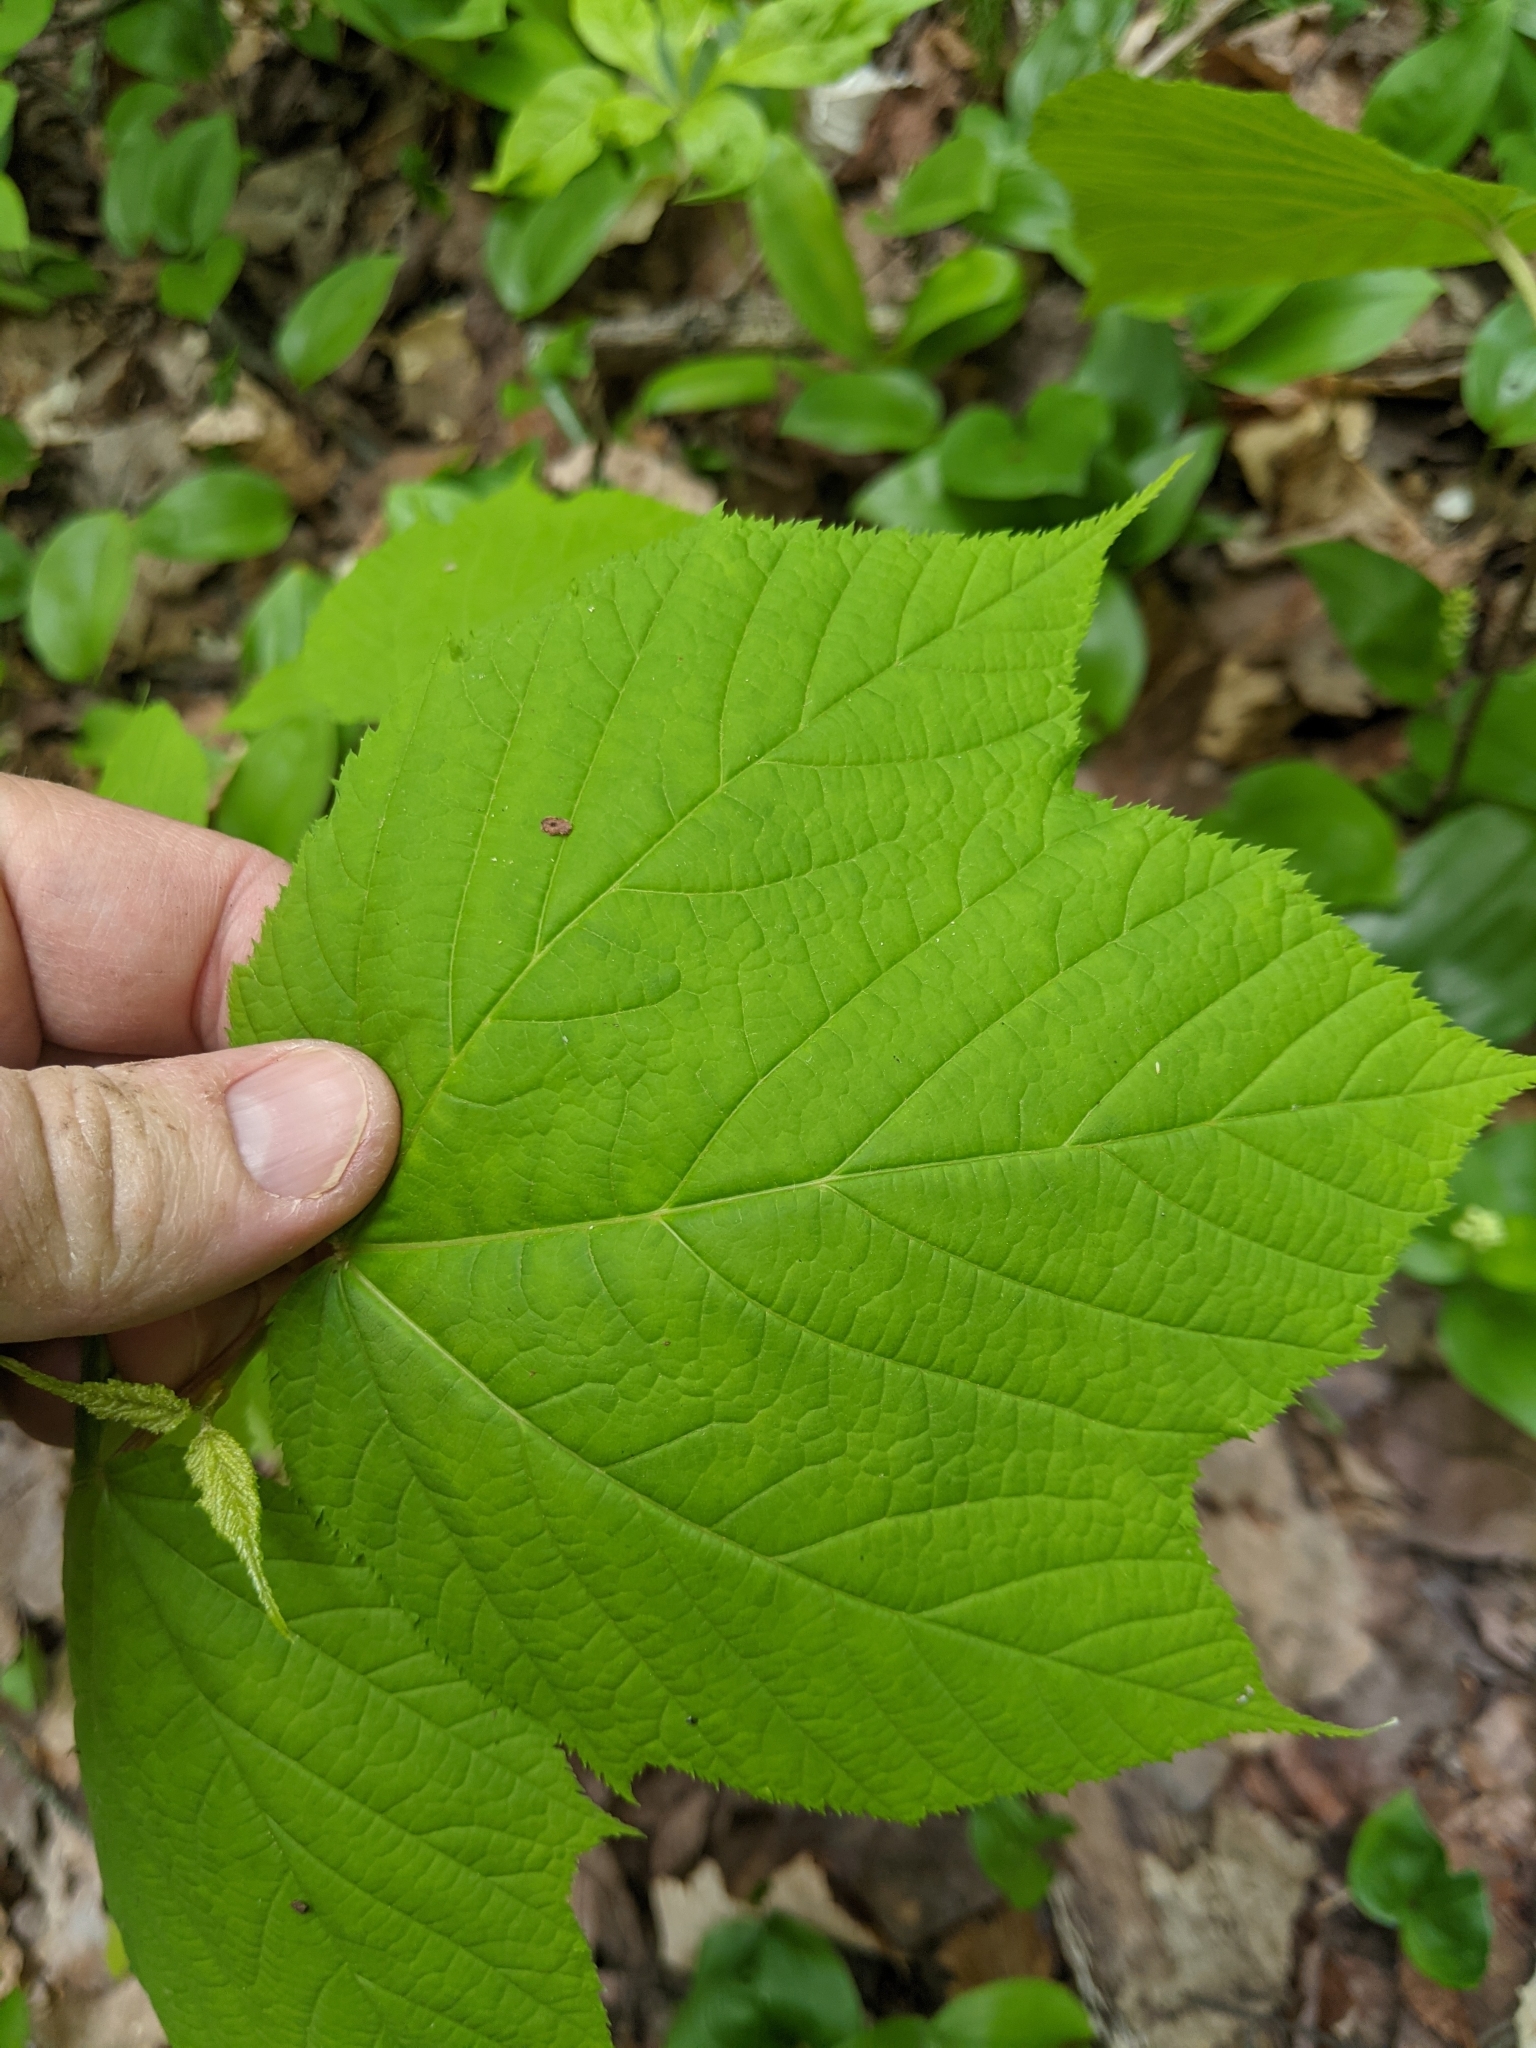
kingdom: Plantae
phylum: Tracheophyta
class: Magnoliopsida
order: Sapindales
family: Sapindaceae
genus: Acer
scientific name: Acer pensylvanicum
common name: Moosewood
